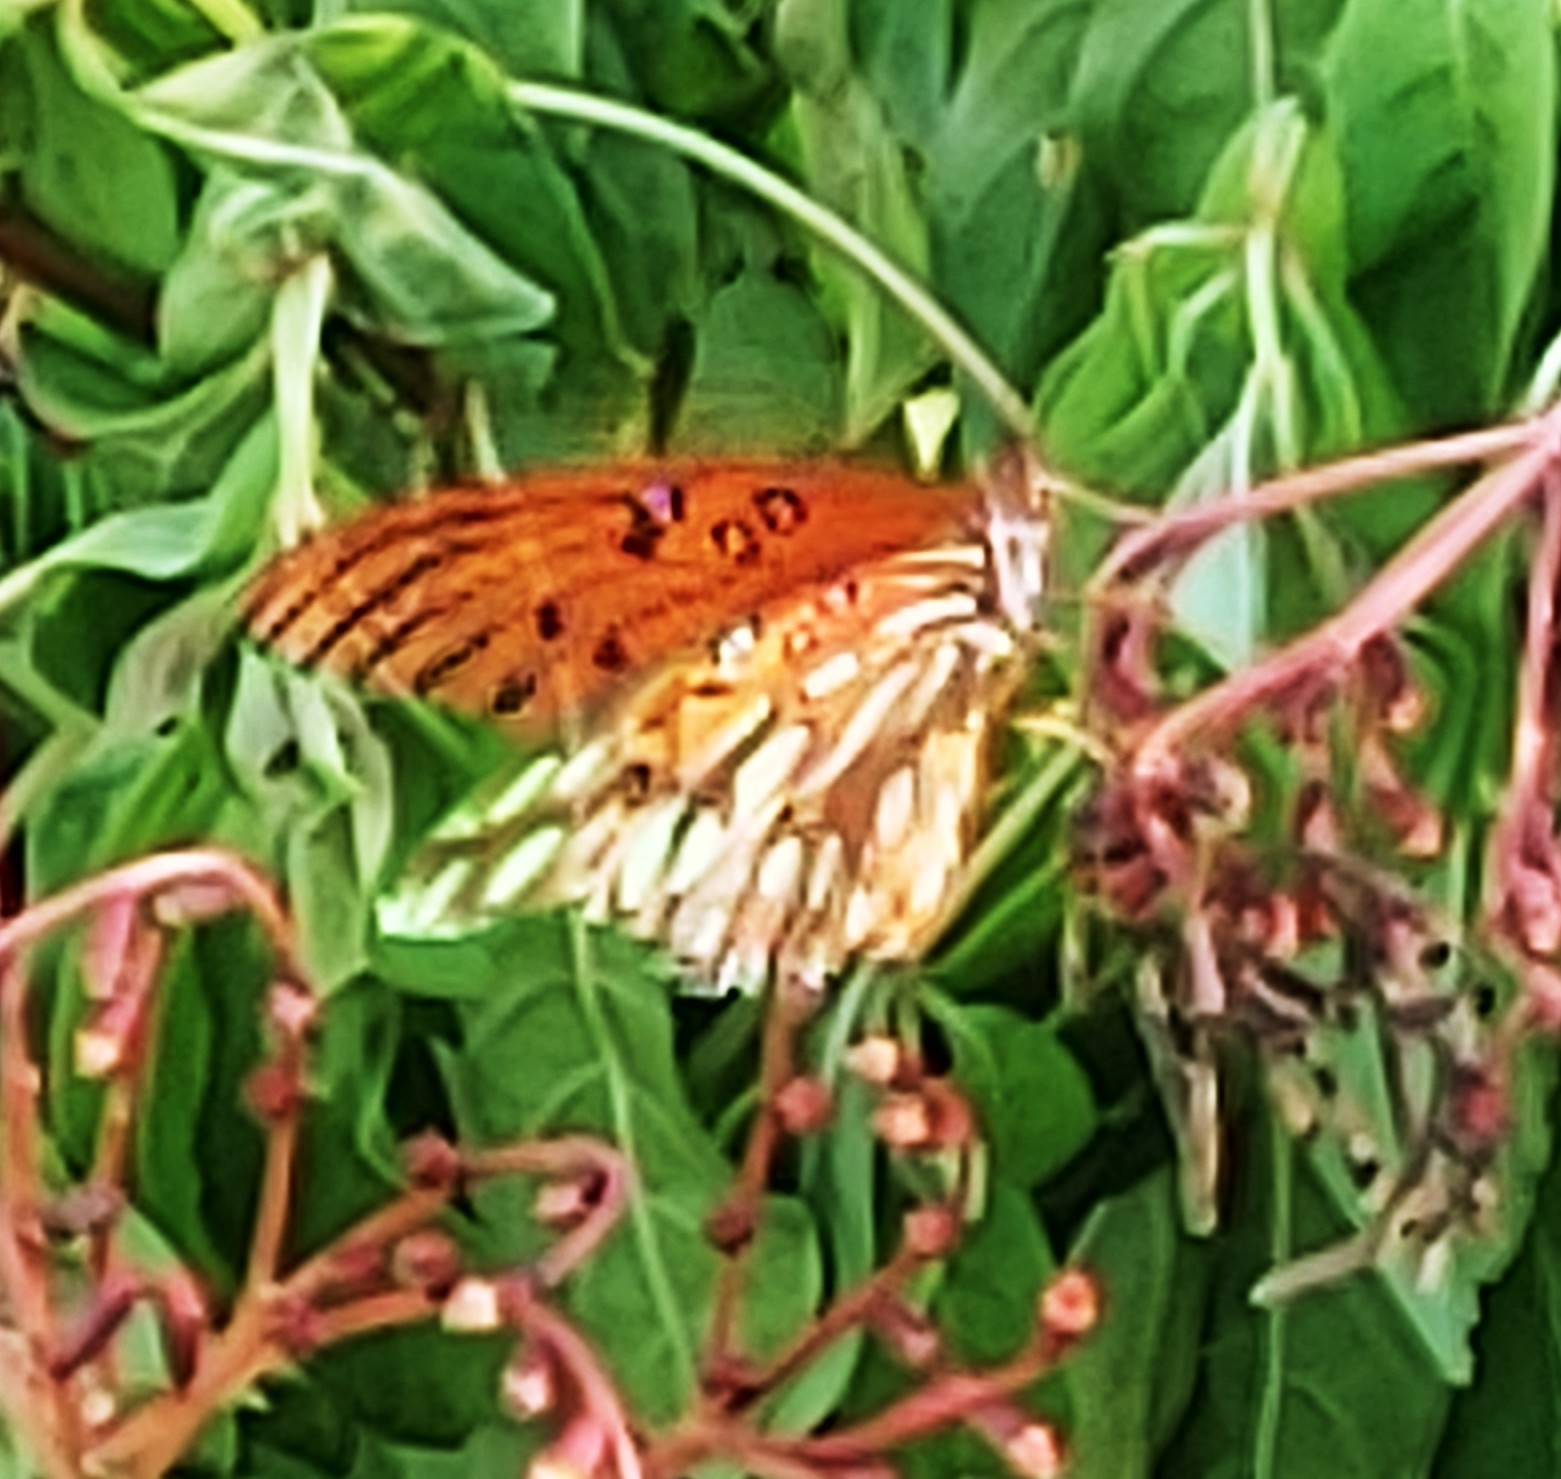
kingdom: Animalia
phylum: Arthropoda
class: Insecta
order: Lepidoptera
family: Nymphalidae
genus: Dione
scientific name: Dione vanillae
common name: Gulf fritillary
